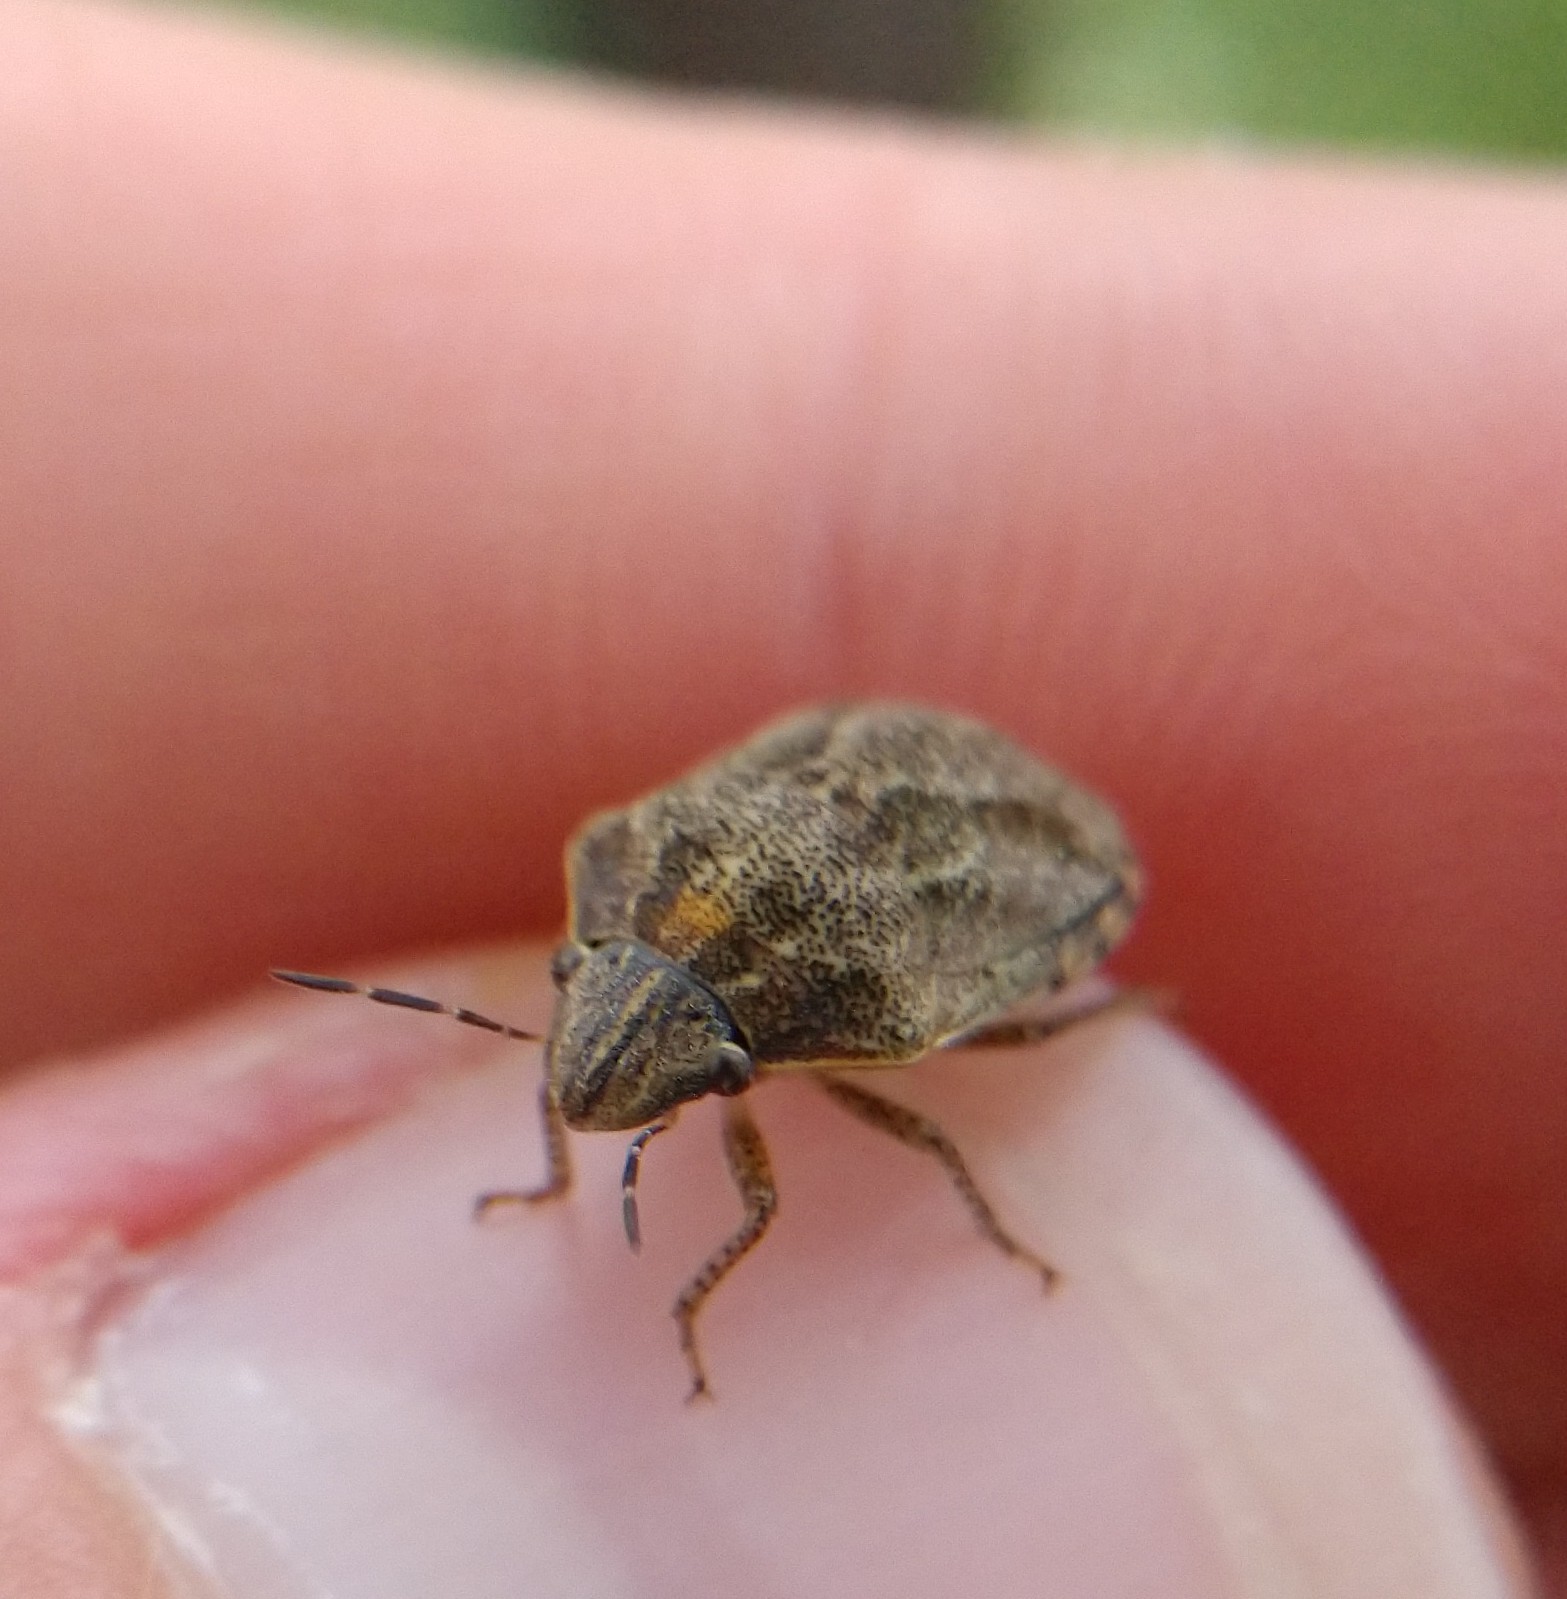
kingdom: Animalia
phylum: Arthropoda
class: Insecta
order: Hemiptera
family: Scutelleridae
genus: Sphyrocoris
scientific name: Sphyrocoris obliquus
